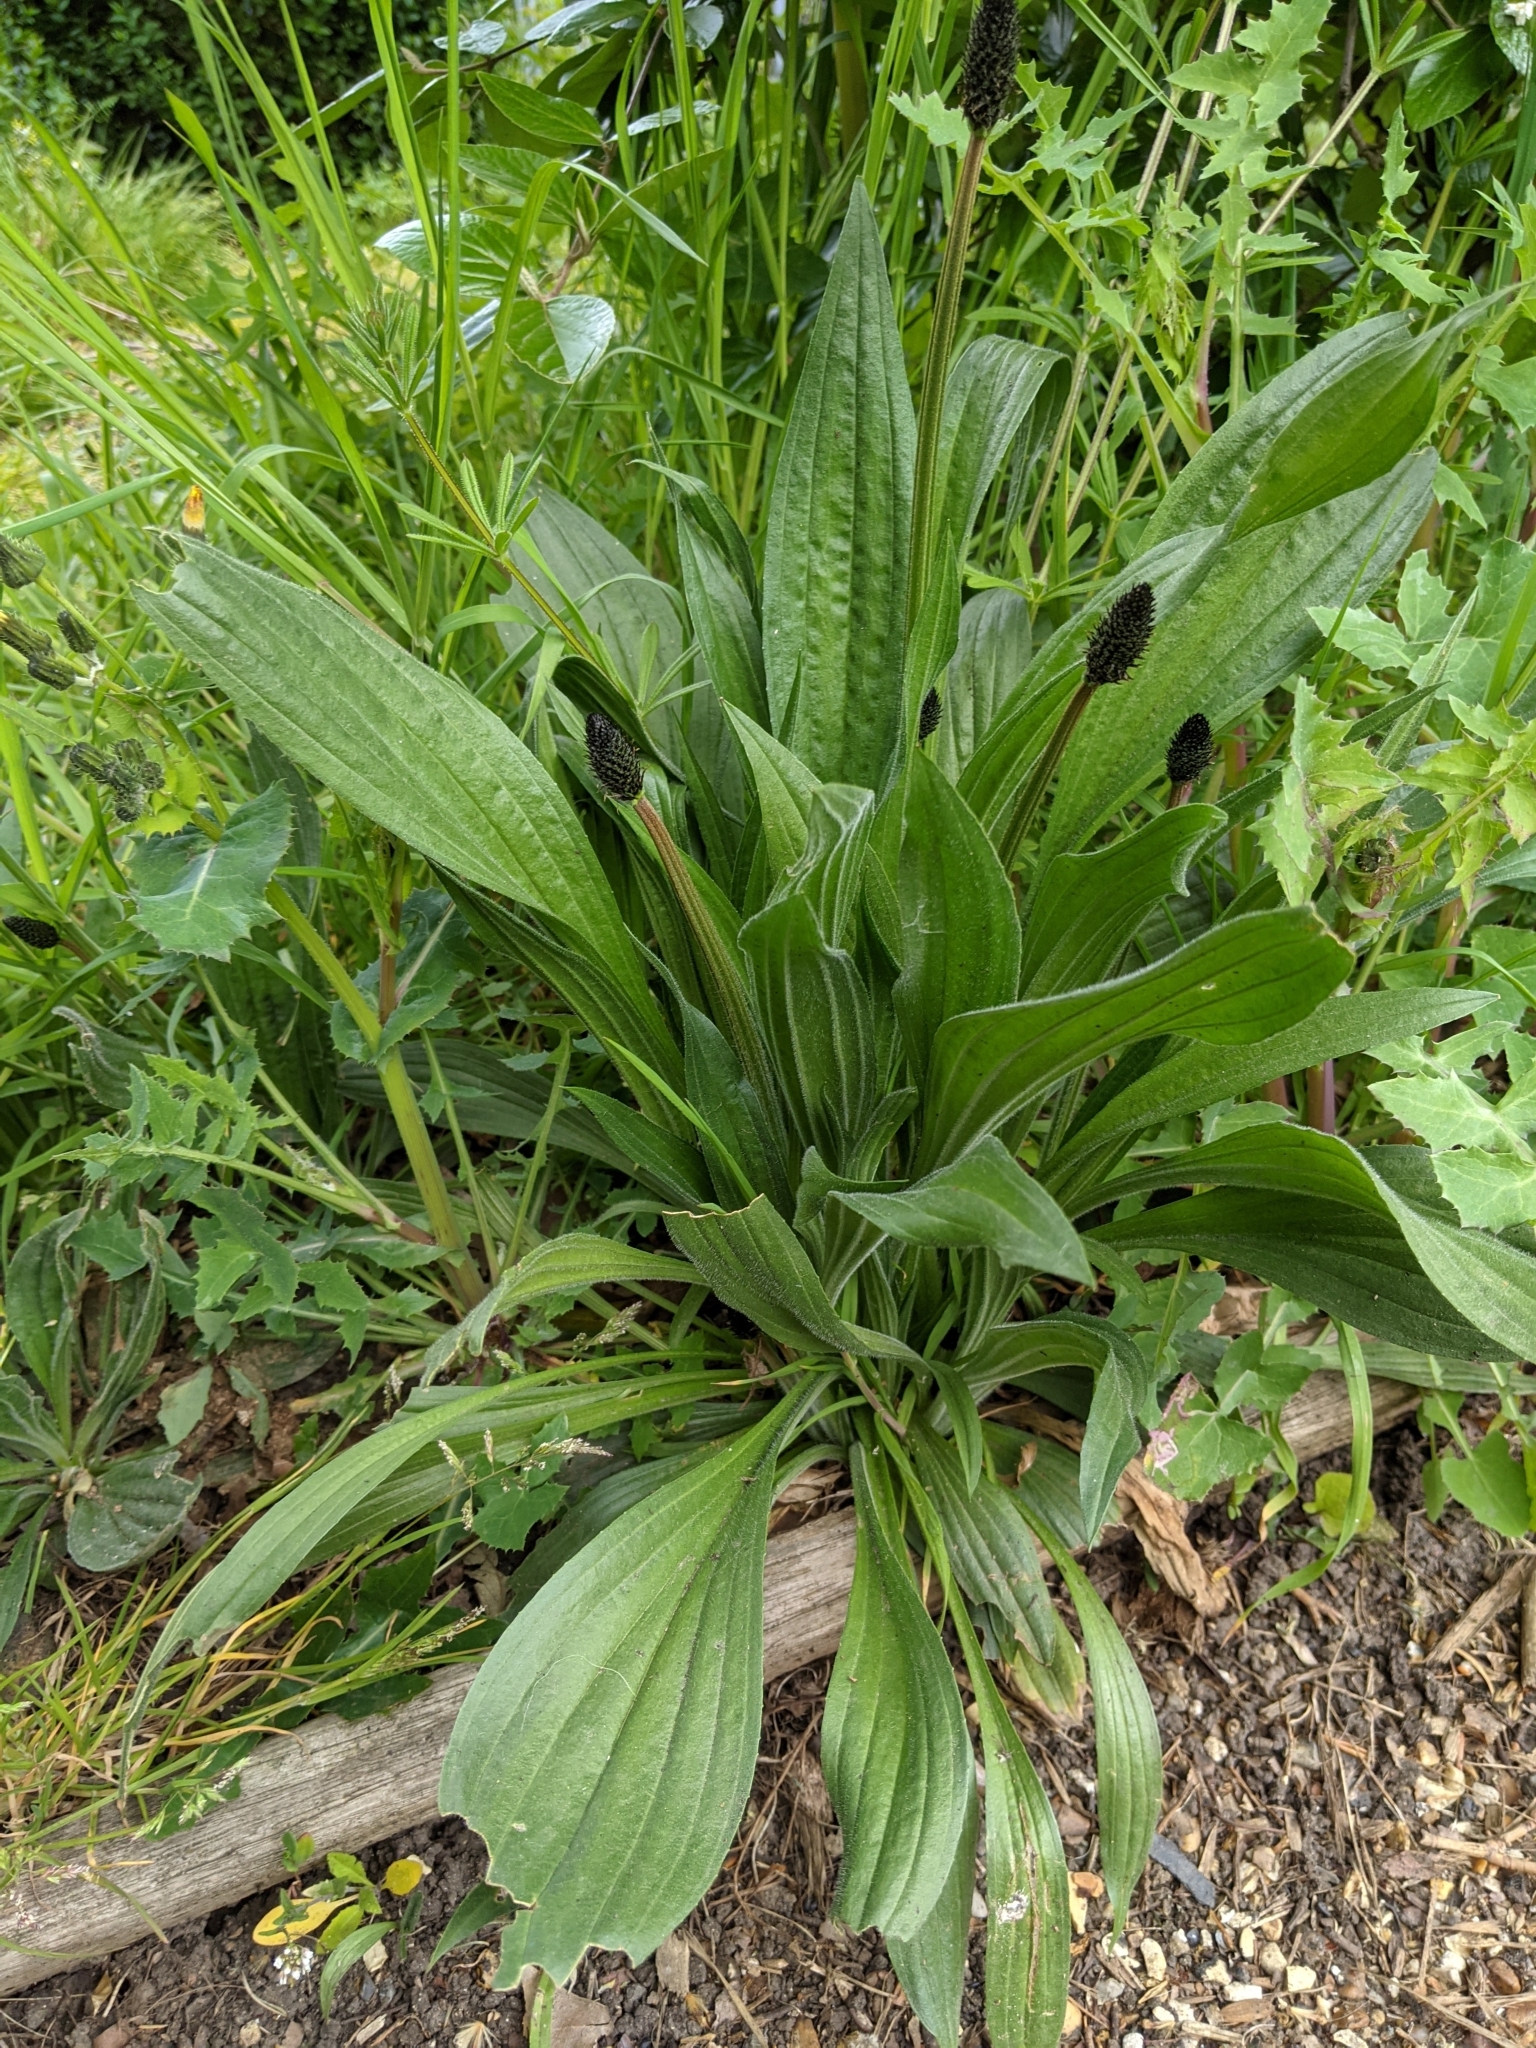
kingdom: Plantae
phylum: Tracheophyta
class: Magnoliopsida
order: Lamiales
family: Plantaginaceae
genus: Plantago
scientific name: Plantago lanceolata
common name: Ribwort plantain
